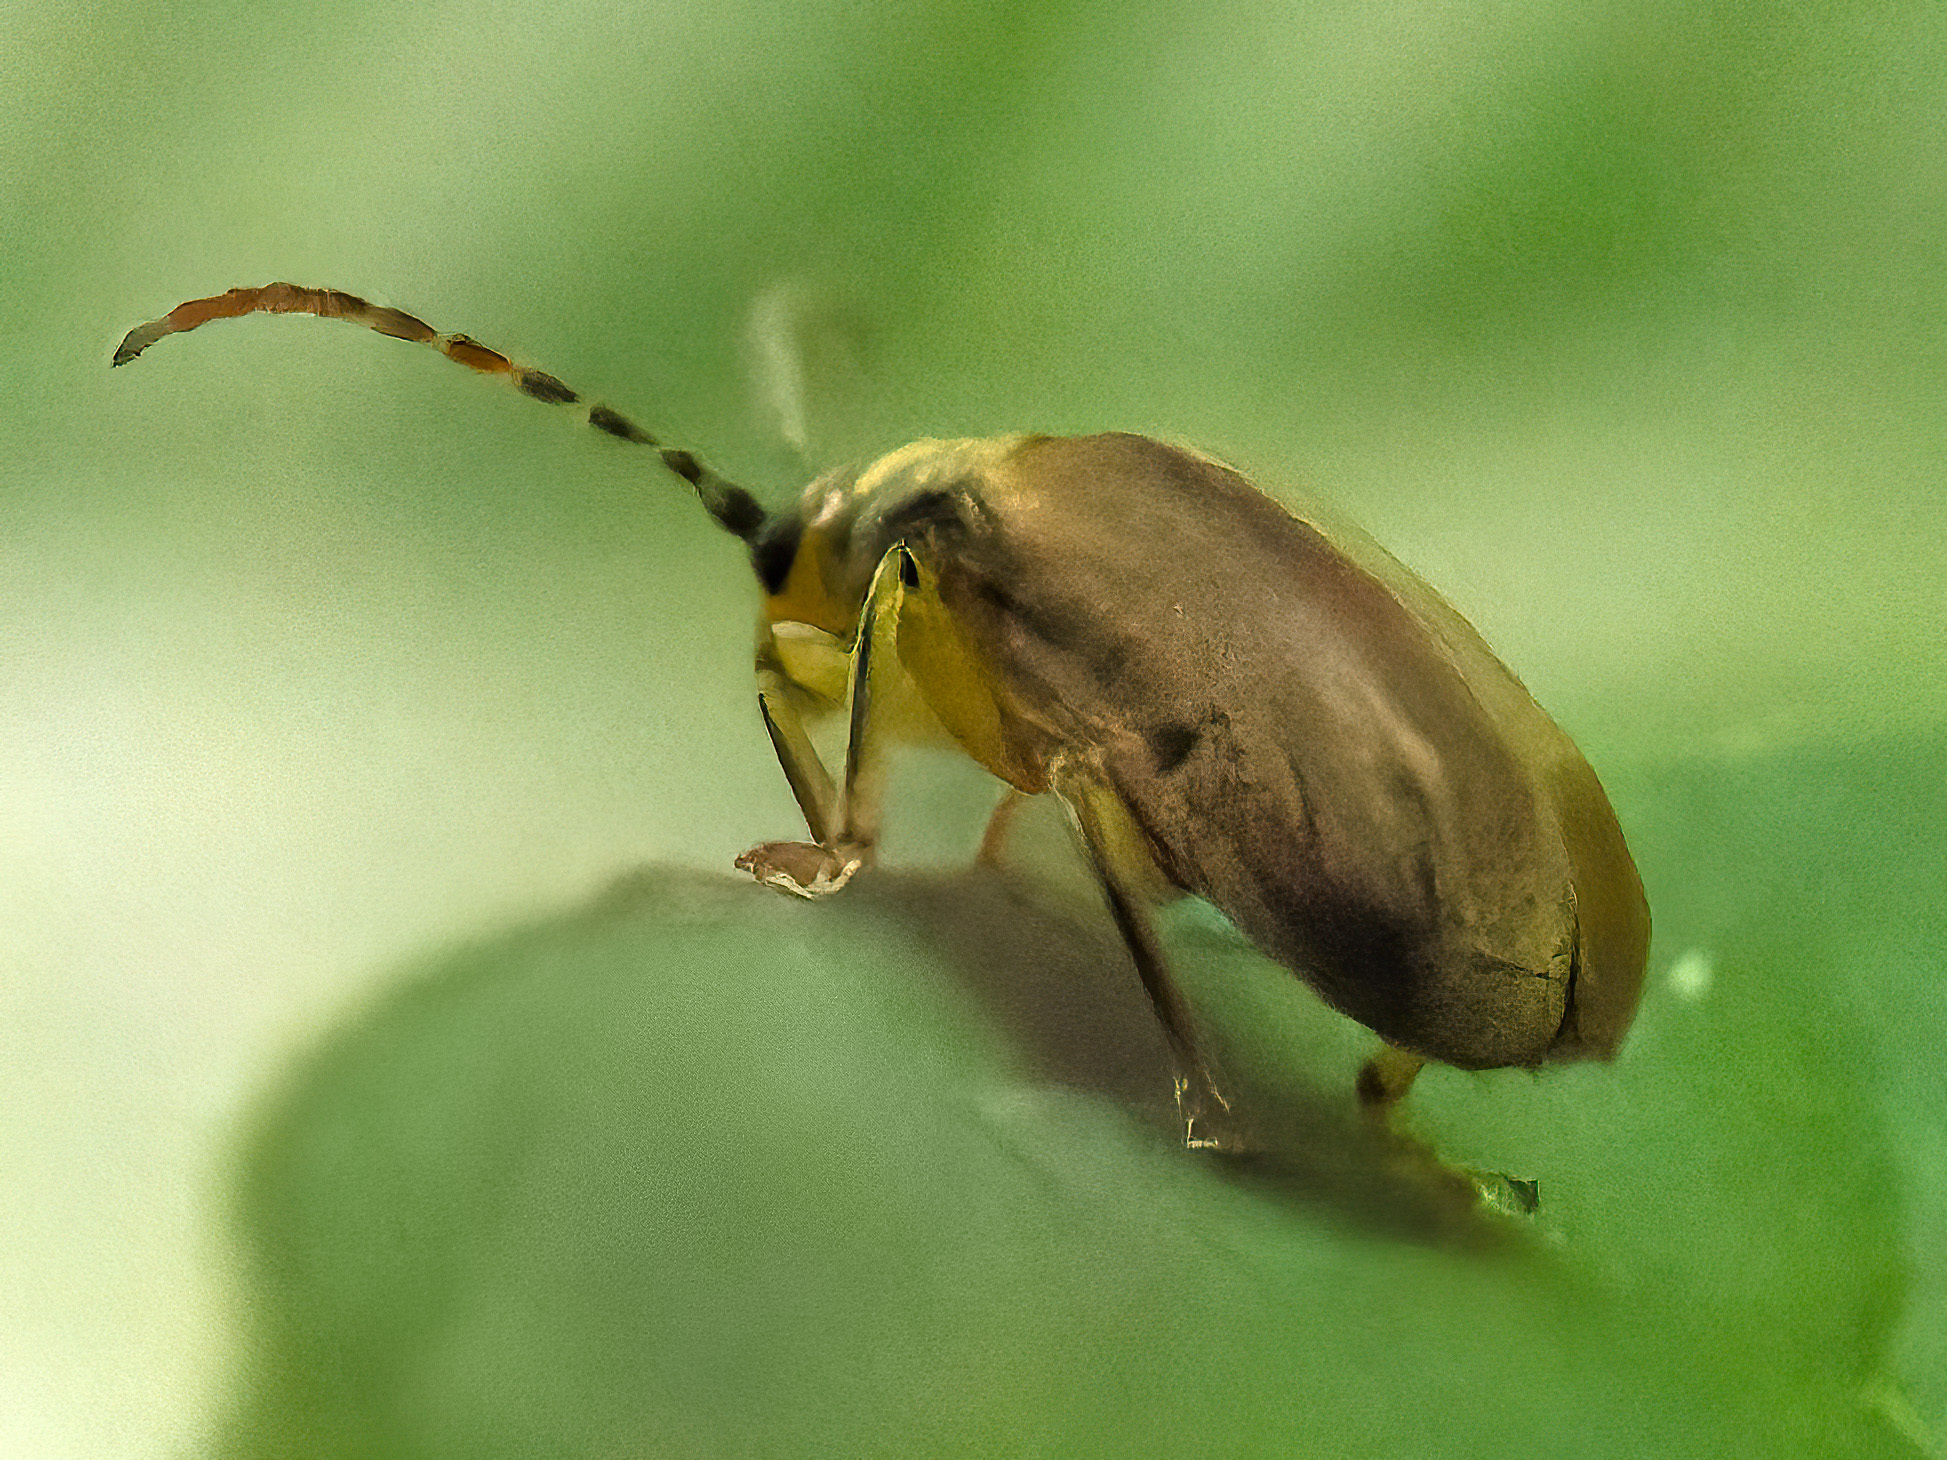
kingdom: Animalia
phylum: Arthropoda
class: Insecta
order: Coleoptera
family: Chrysomelidae
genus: Pyrrhalta
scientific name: Pyrrhalta viburni
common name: Guelder-rose leaf beetle
